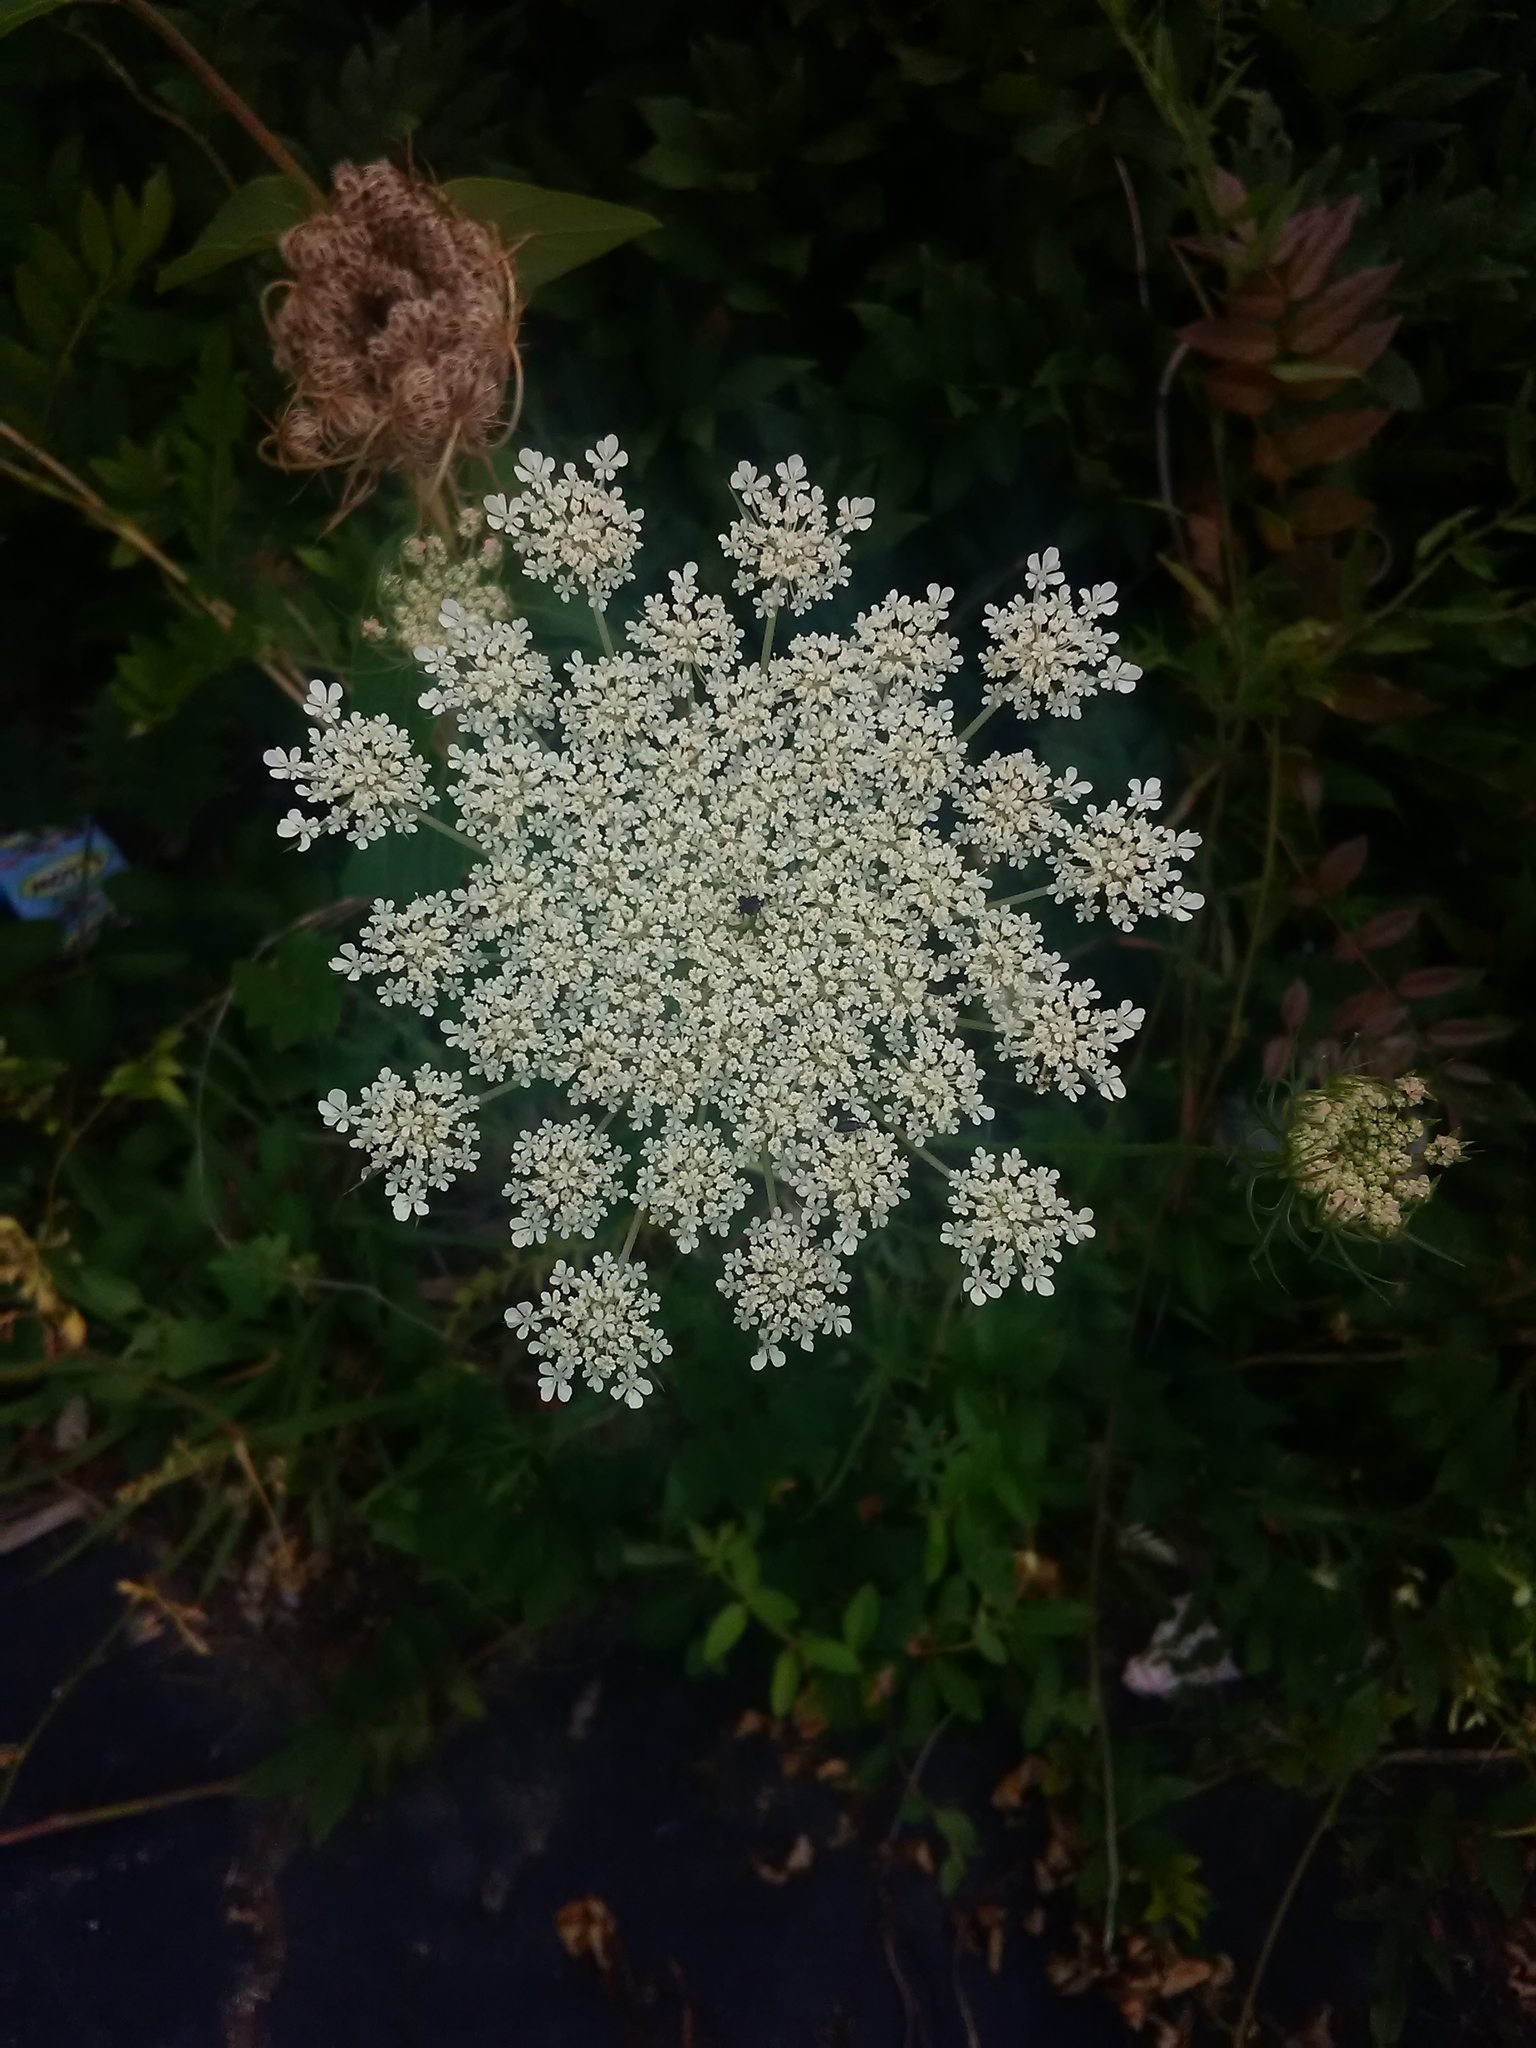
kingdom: Plantae
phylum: Tracheophyta
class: Magnoliopsida
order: Apiales
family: Apiaceae
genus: Daucus
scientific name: Daucus carota
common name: Wild carrot
